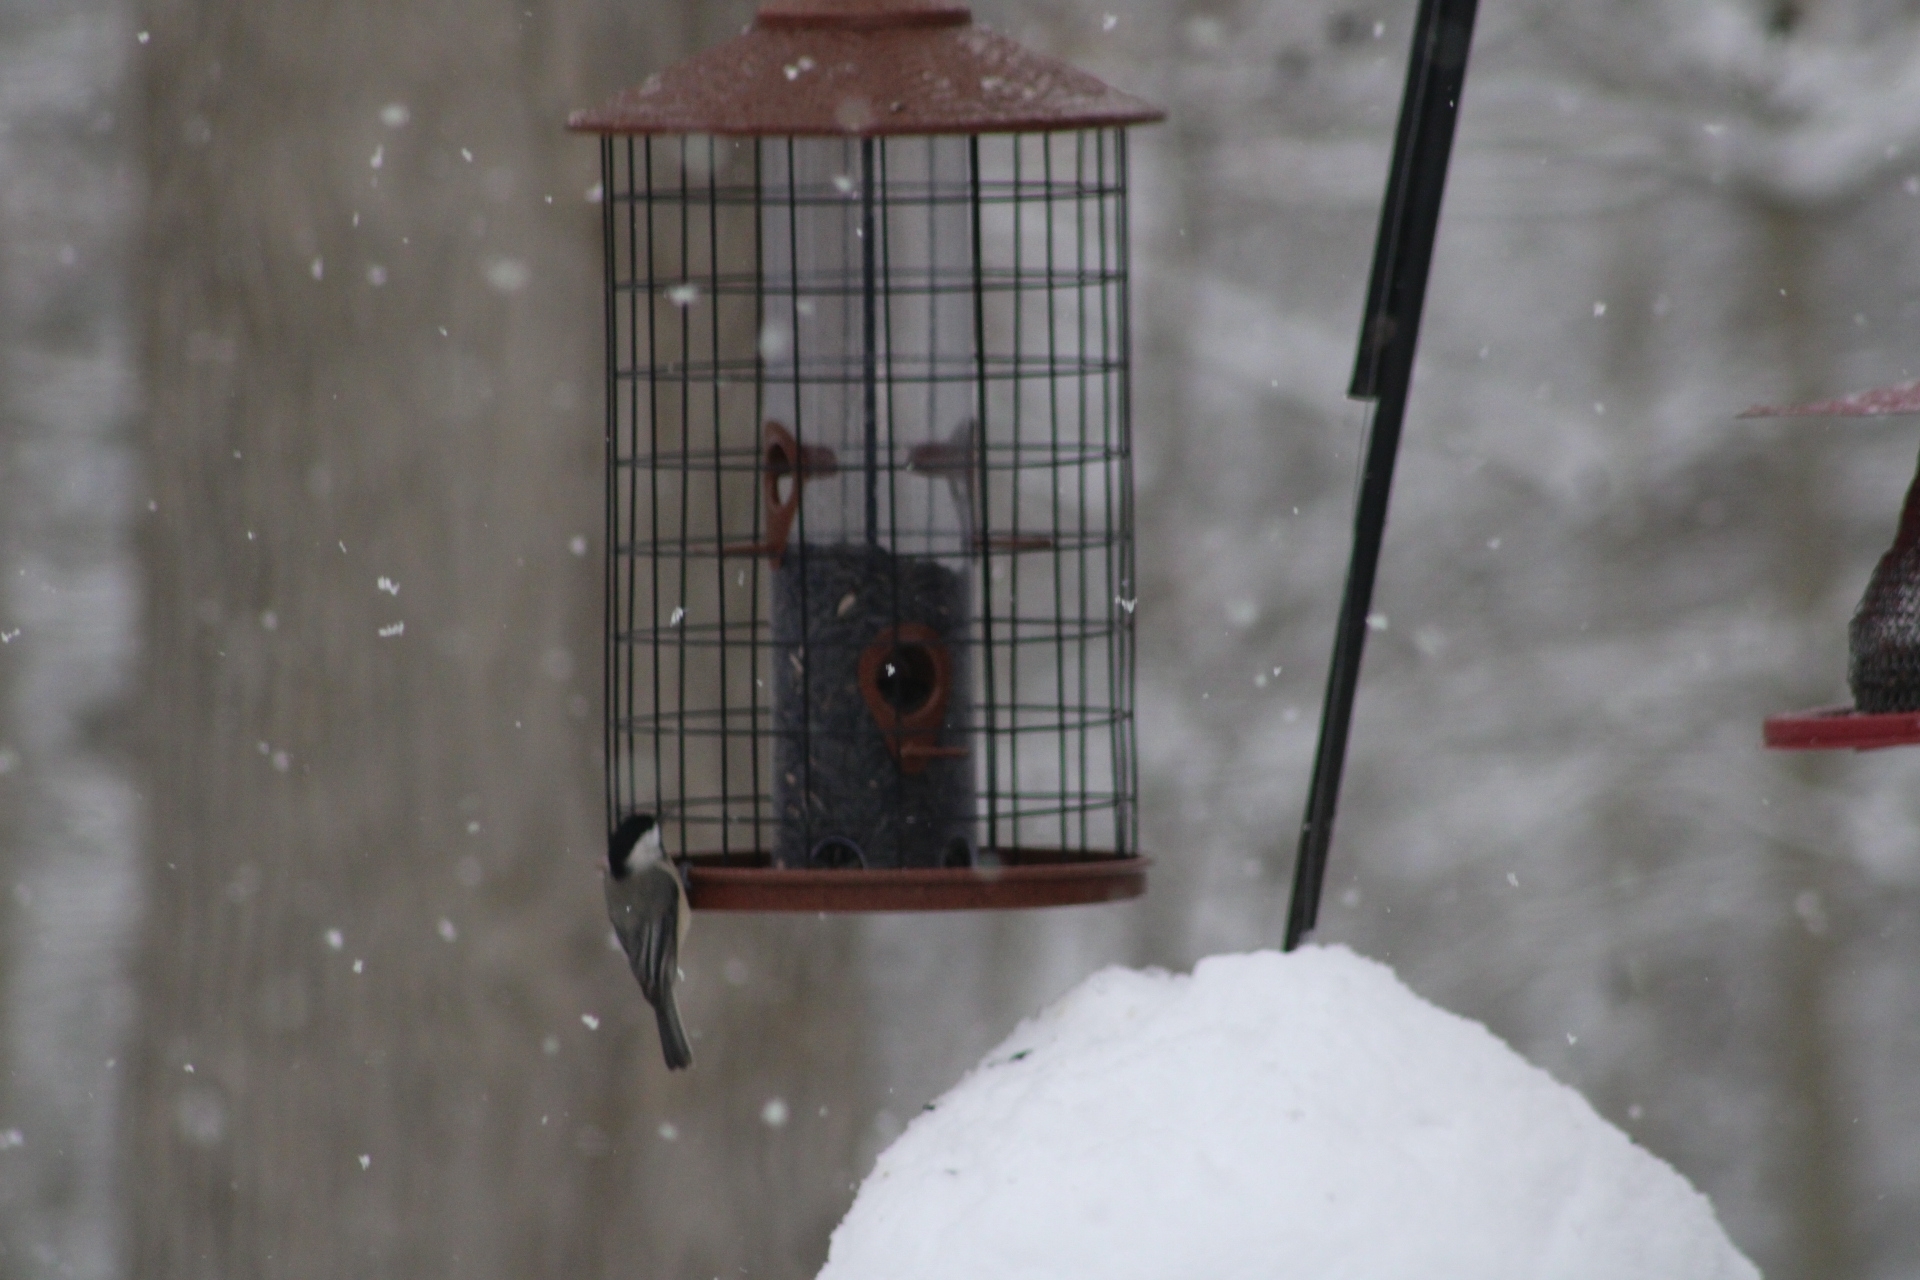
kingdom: Animalia
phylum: Chordata
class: Aves
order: Passeriformes
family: Paridae
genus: Poecile
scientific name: Poecile carolinensis
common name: Carolina chickadee
